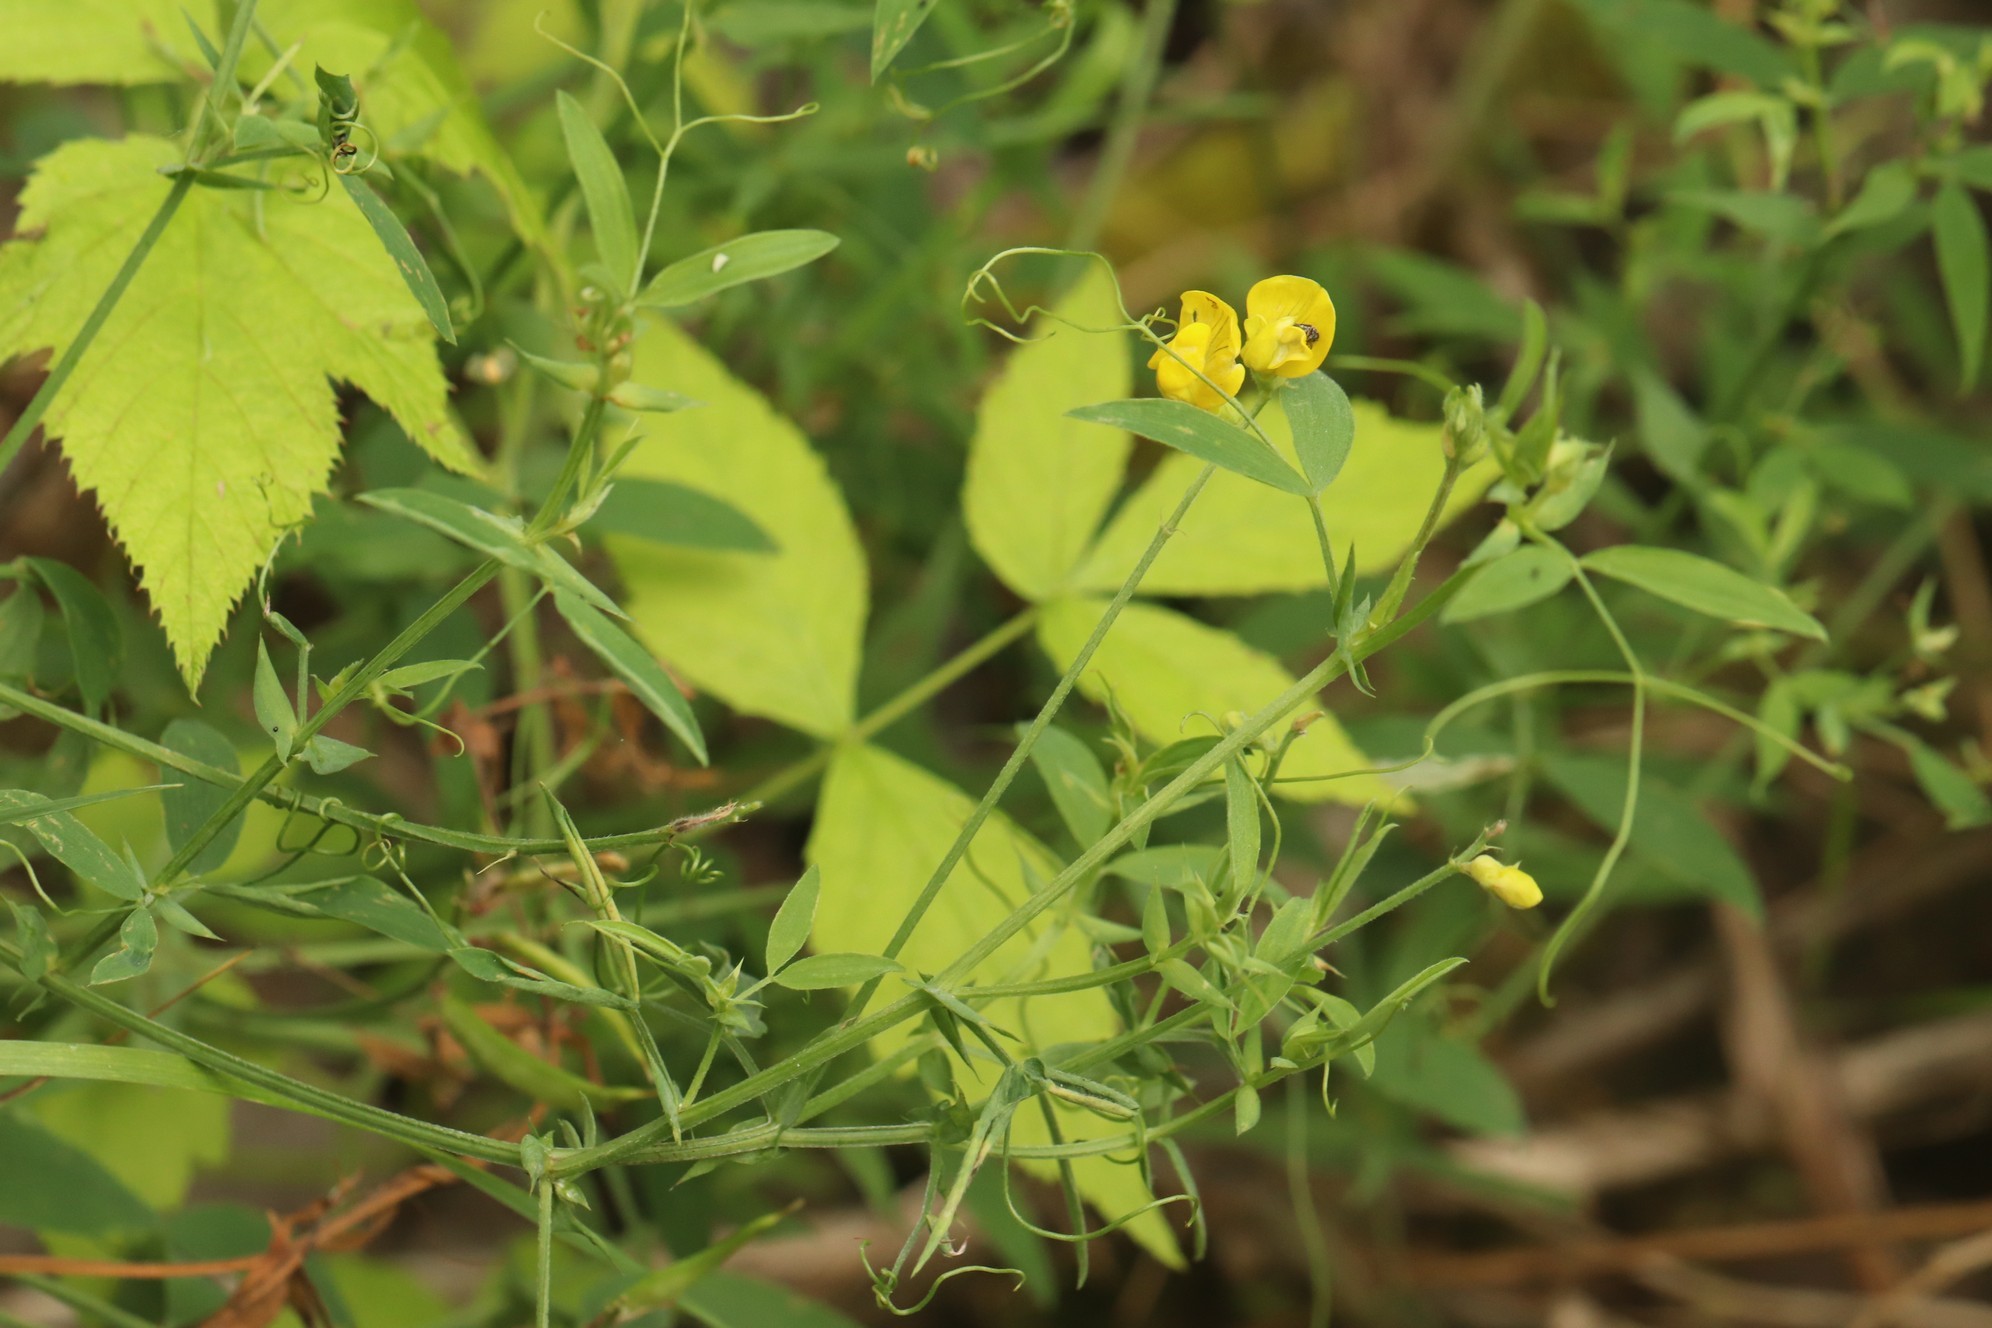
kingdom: Plantae
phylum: Tracheophyta
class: Magnoliopsida
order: Fabales
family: Fabaceae
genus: Lathyrus
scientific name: Lathyrus pratensis
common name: Meadow vetchling
